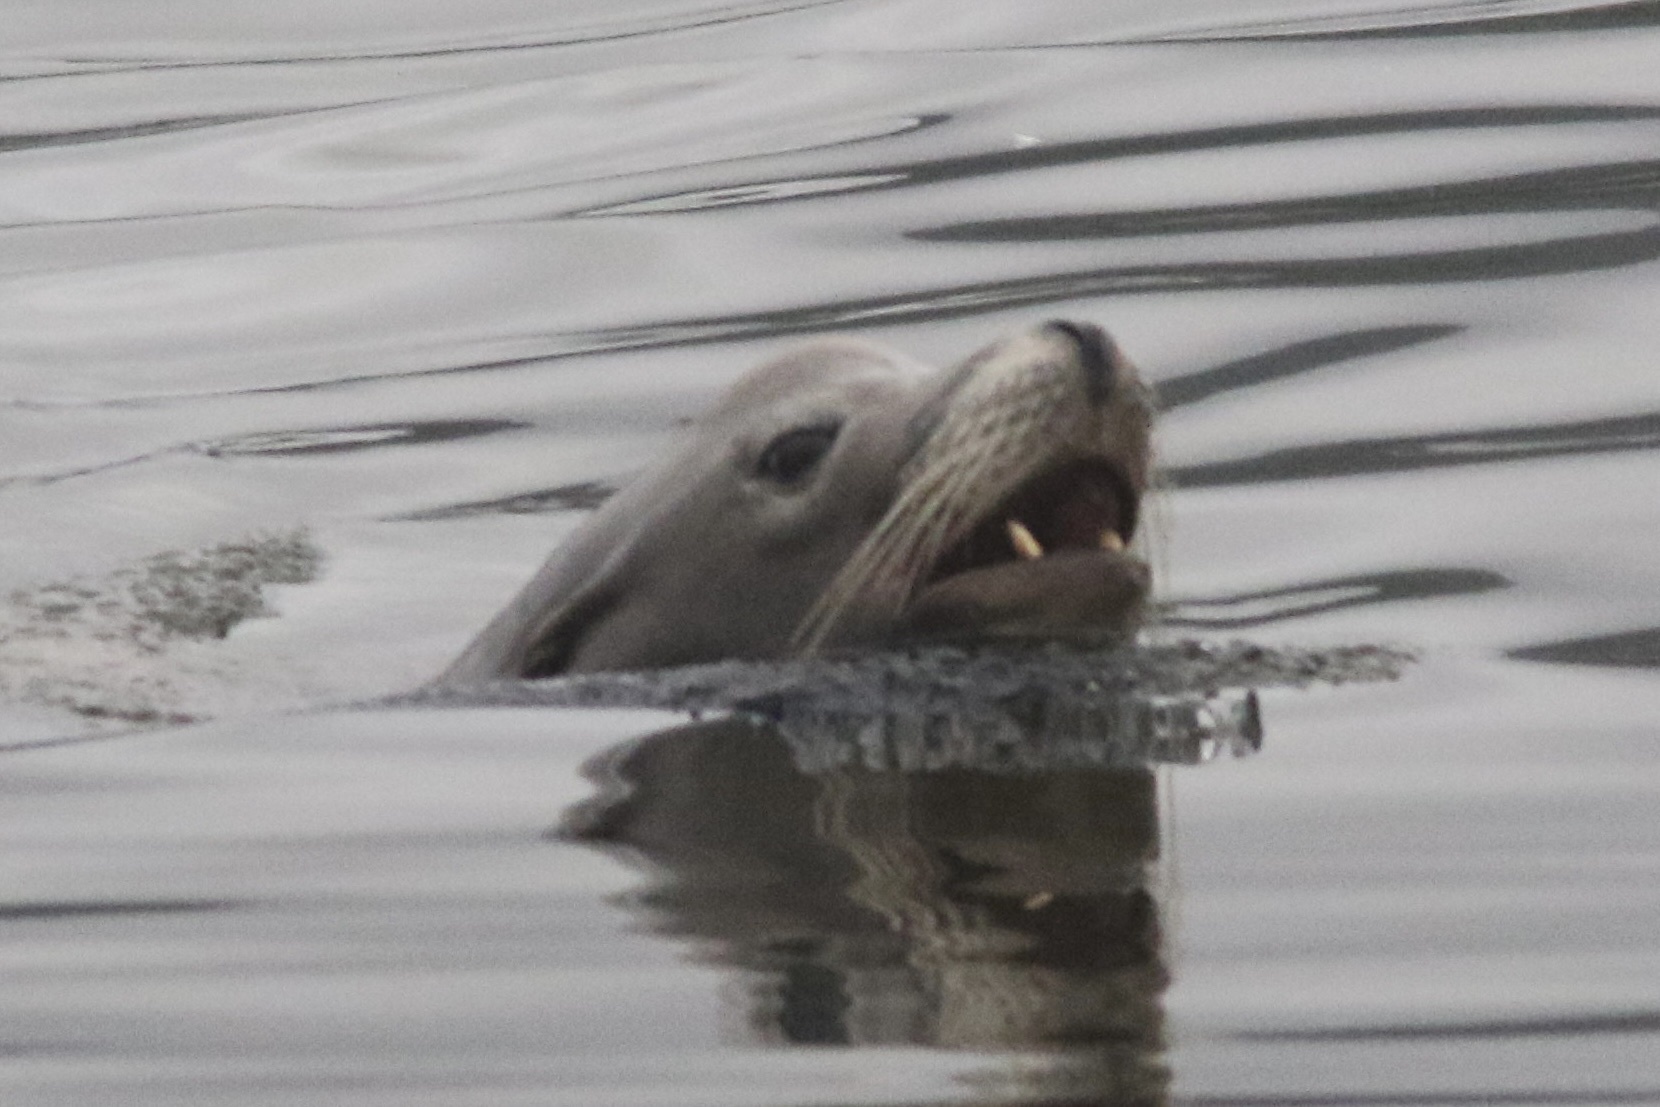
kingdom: Animalia
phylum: Chordata
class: Mammalia
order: Carnivora
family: Otariidae
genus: Zalophus
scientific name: Zalophus californianus
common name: California sea lion
